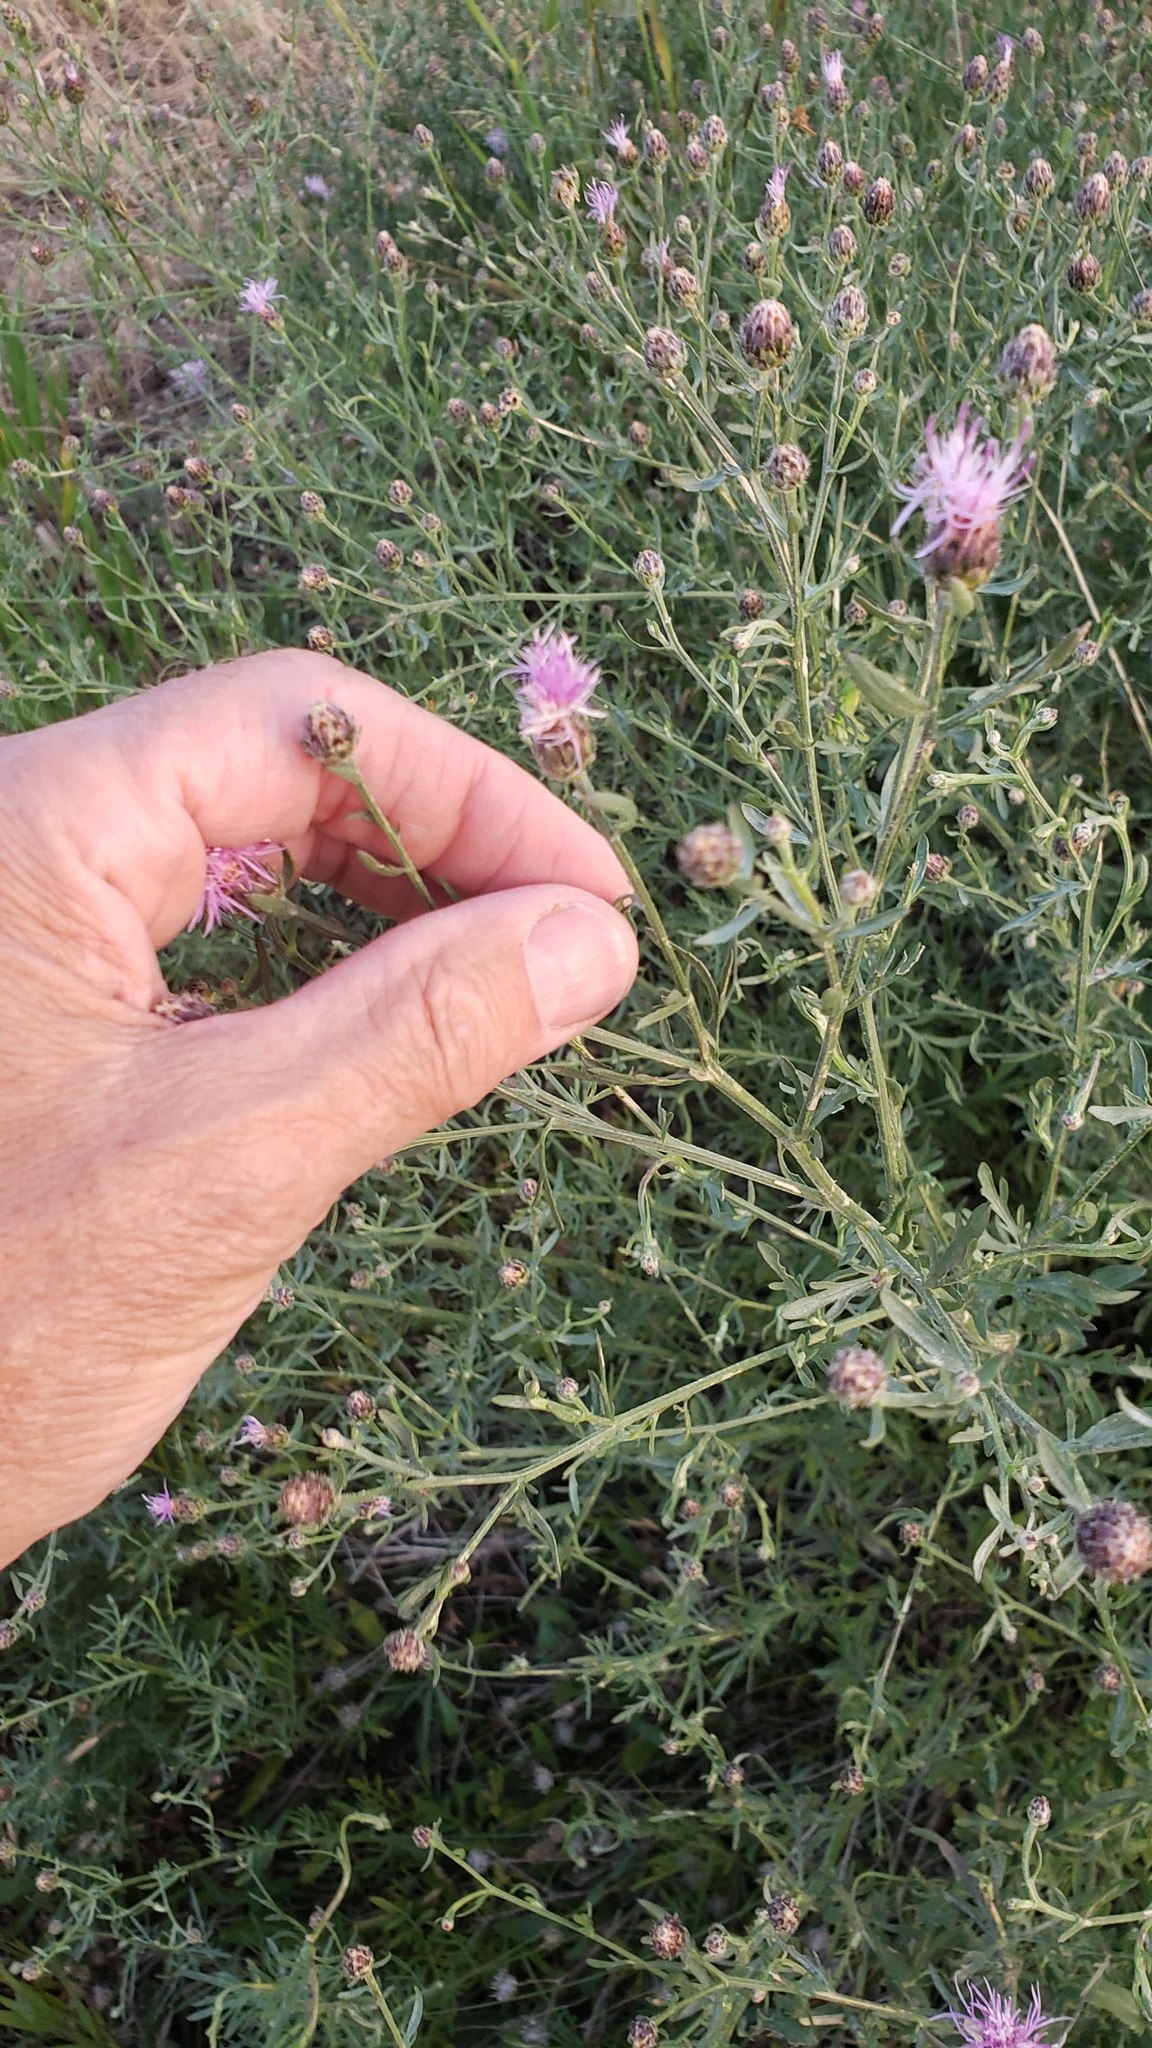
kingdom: Plantae
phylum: Tracheophyta
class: Magnoliopsida
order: Asterales
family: Asteraceae
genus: Centaurea
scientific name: Centaurea stoebe
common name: Spotted knapweed
